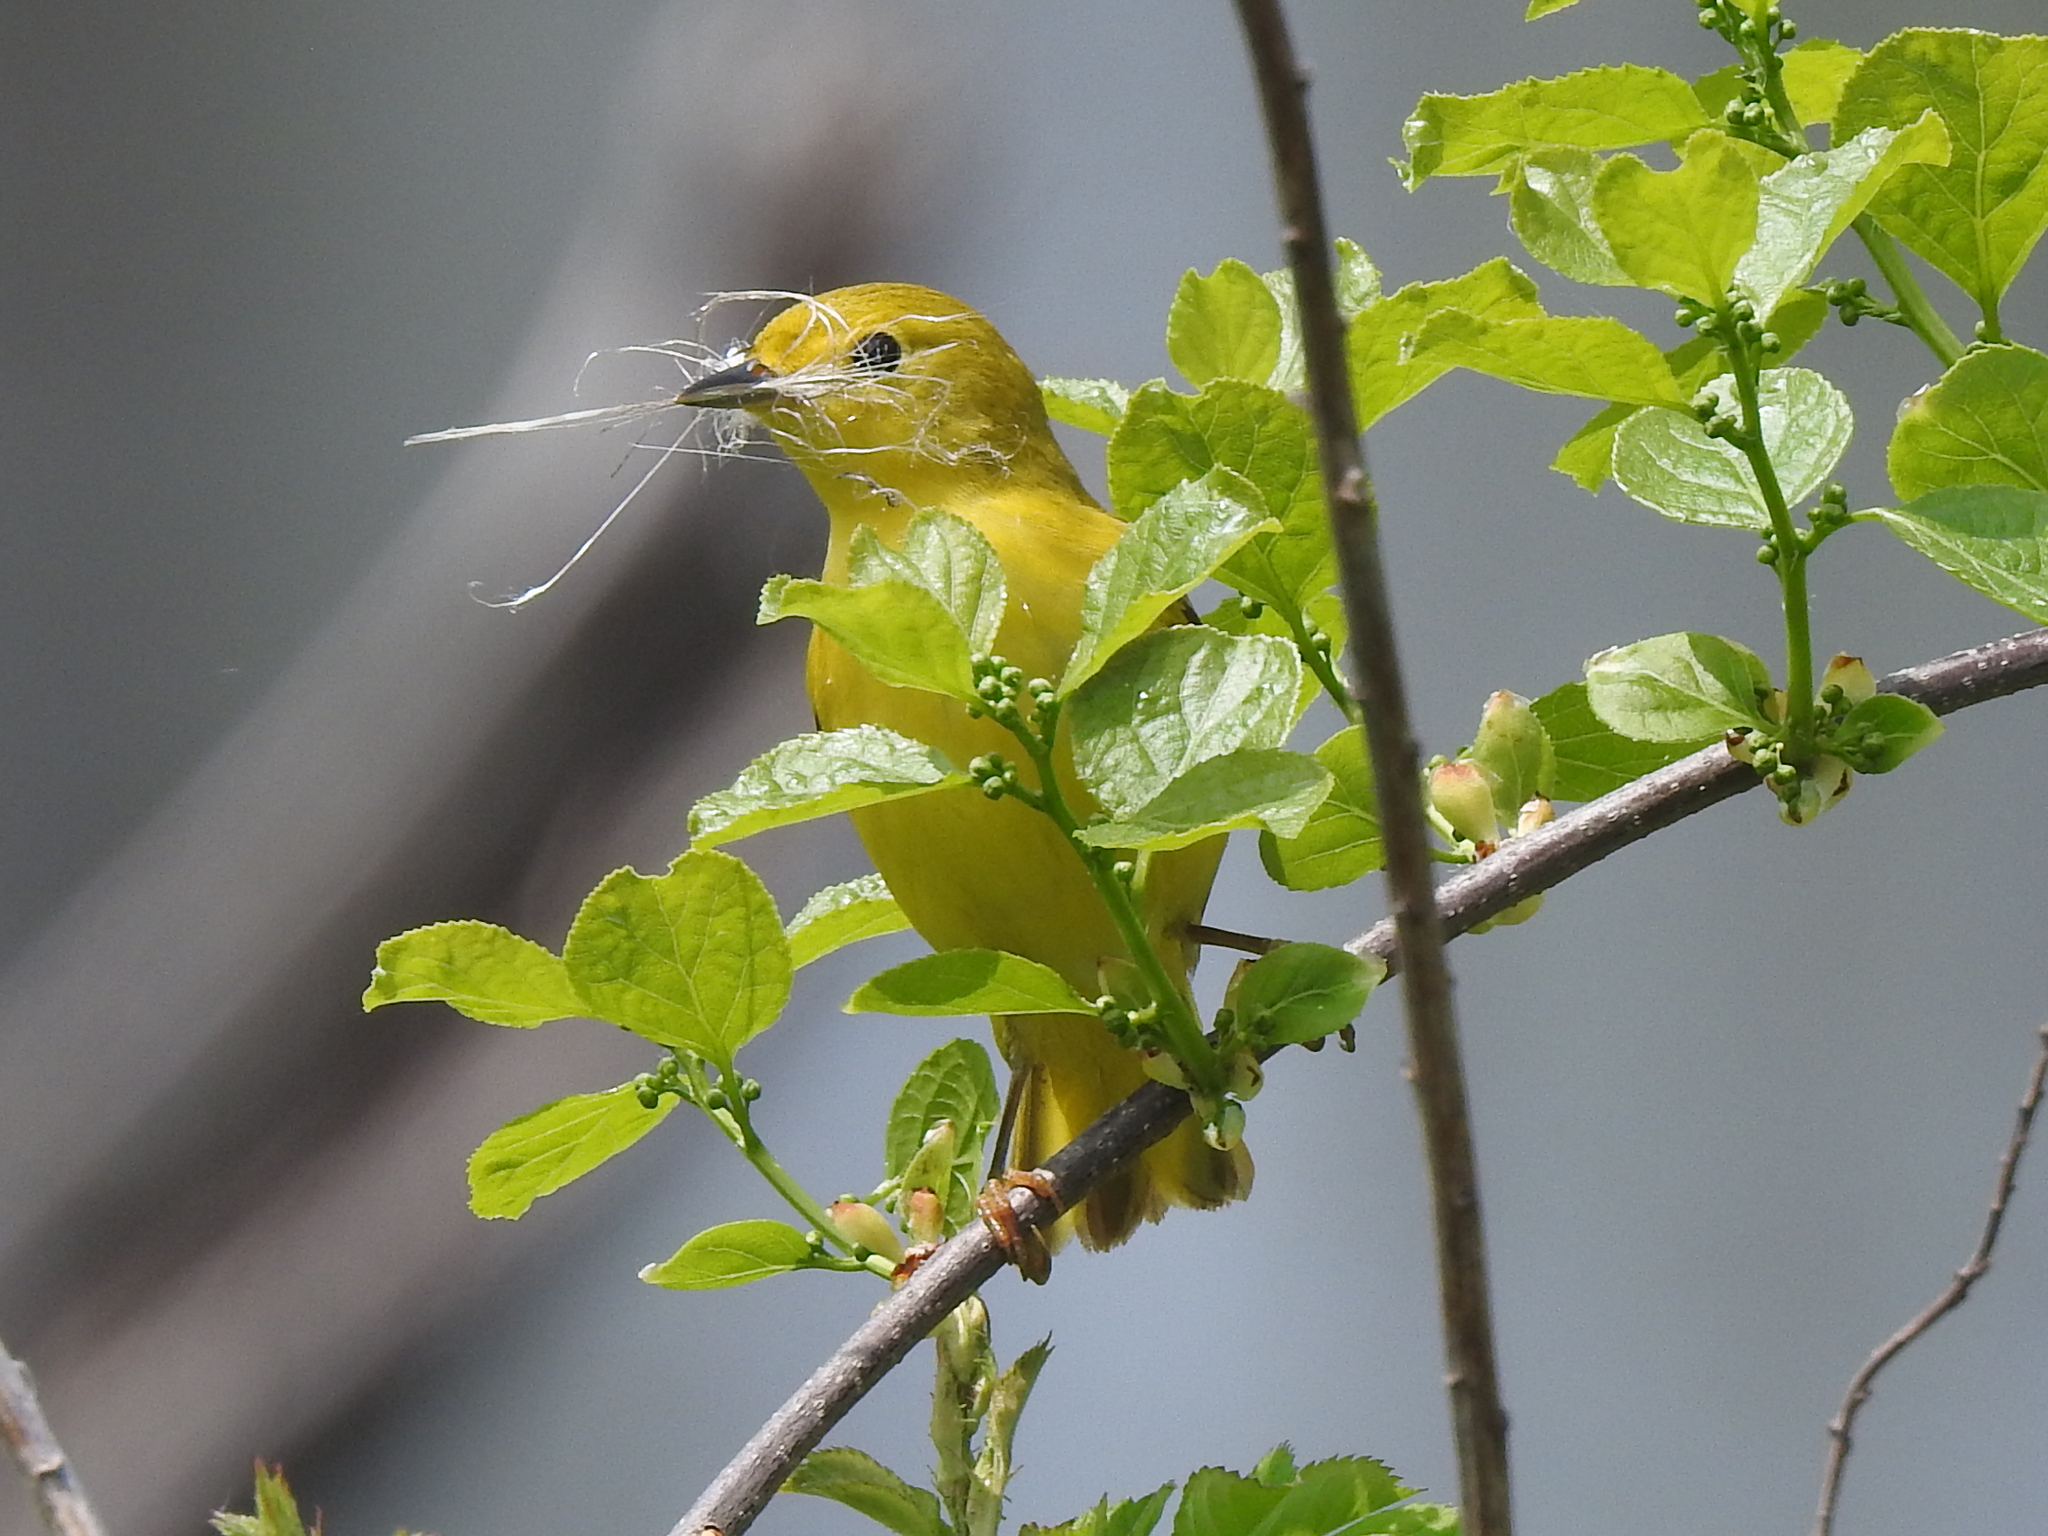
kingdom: Animalia
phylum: Chordata
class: Aves
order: Passeriformes
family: Parulidae
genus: Setophaga
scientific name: Setophaga petechia
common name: Yellow warbler
